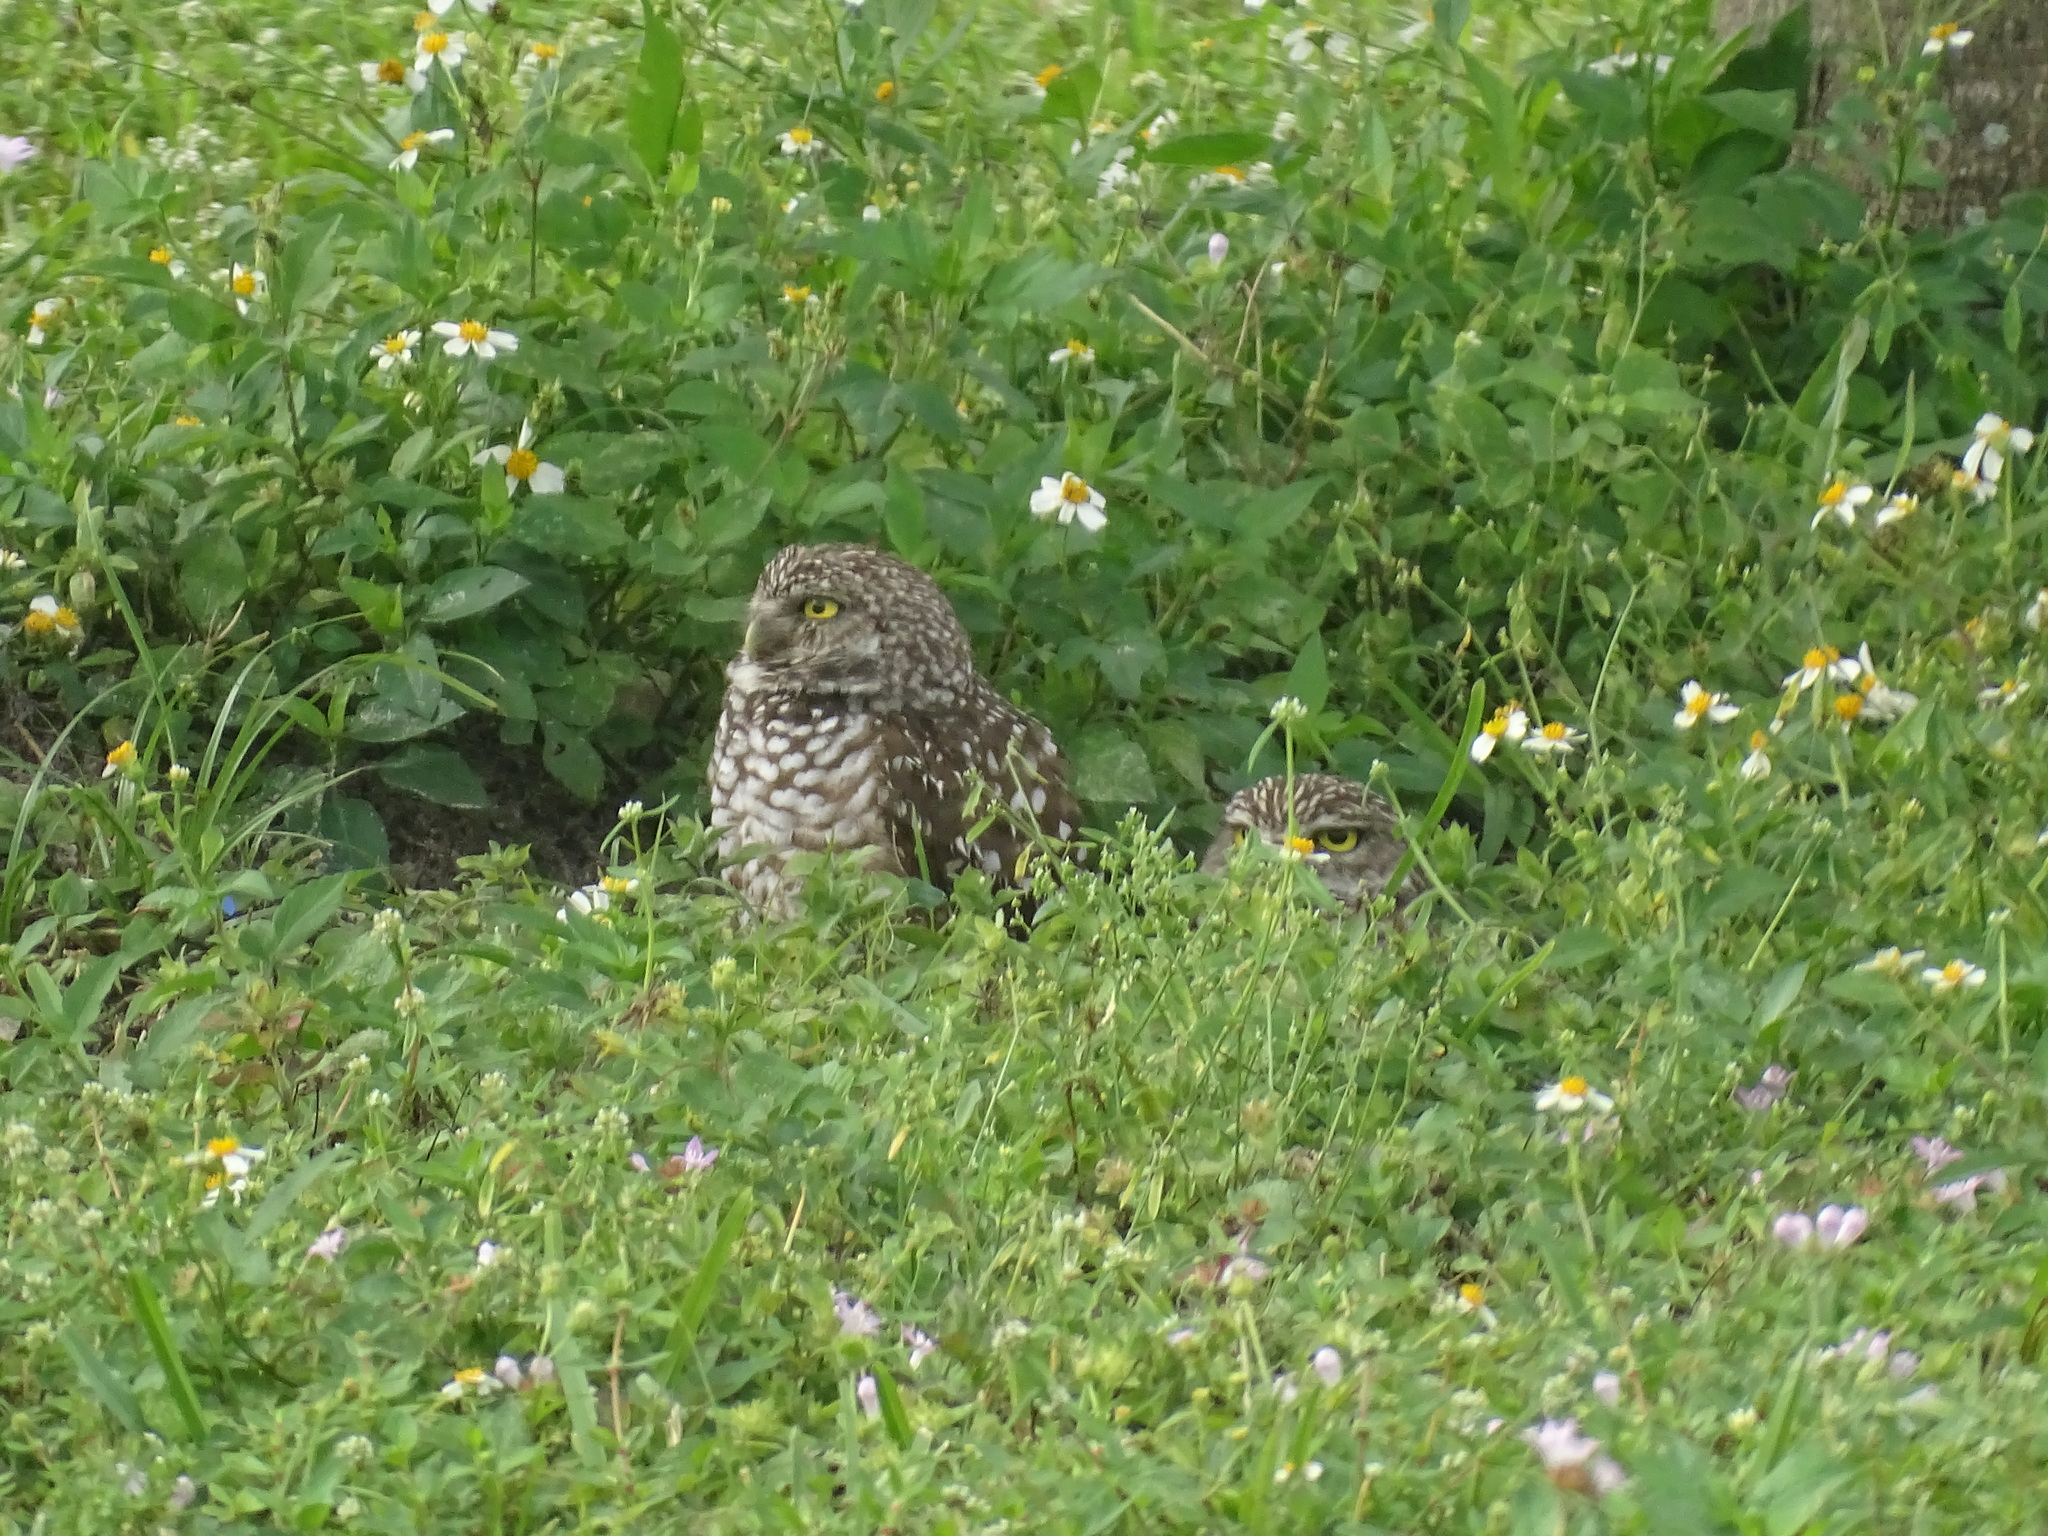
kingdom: Animalia
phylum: Chordata
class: Aves
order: Strigiformes
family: Strigidae
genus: Athene
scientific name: Athene cunicularia
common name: Burrowing owl
